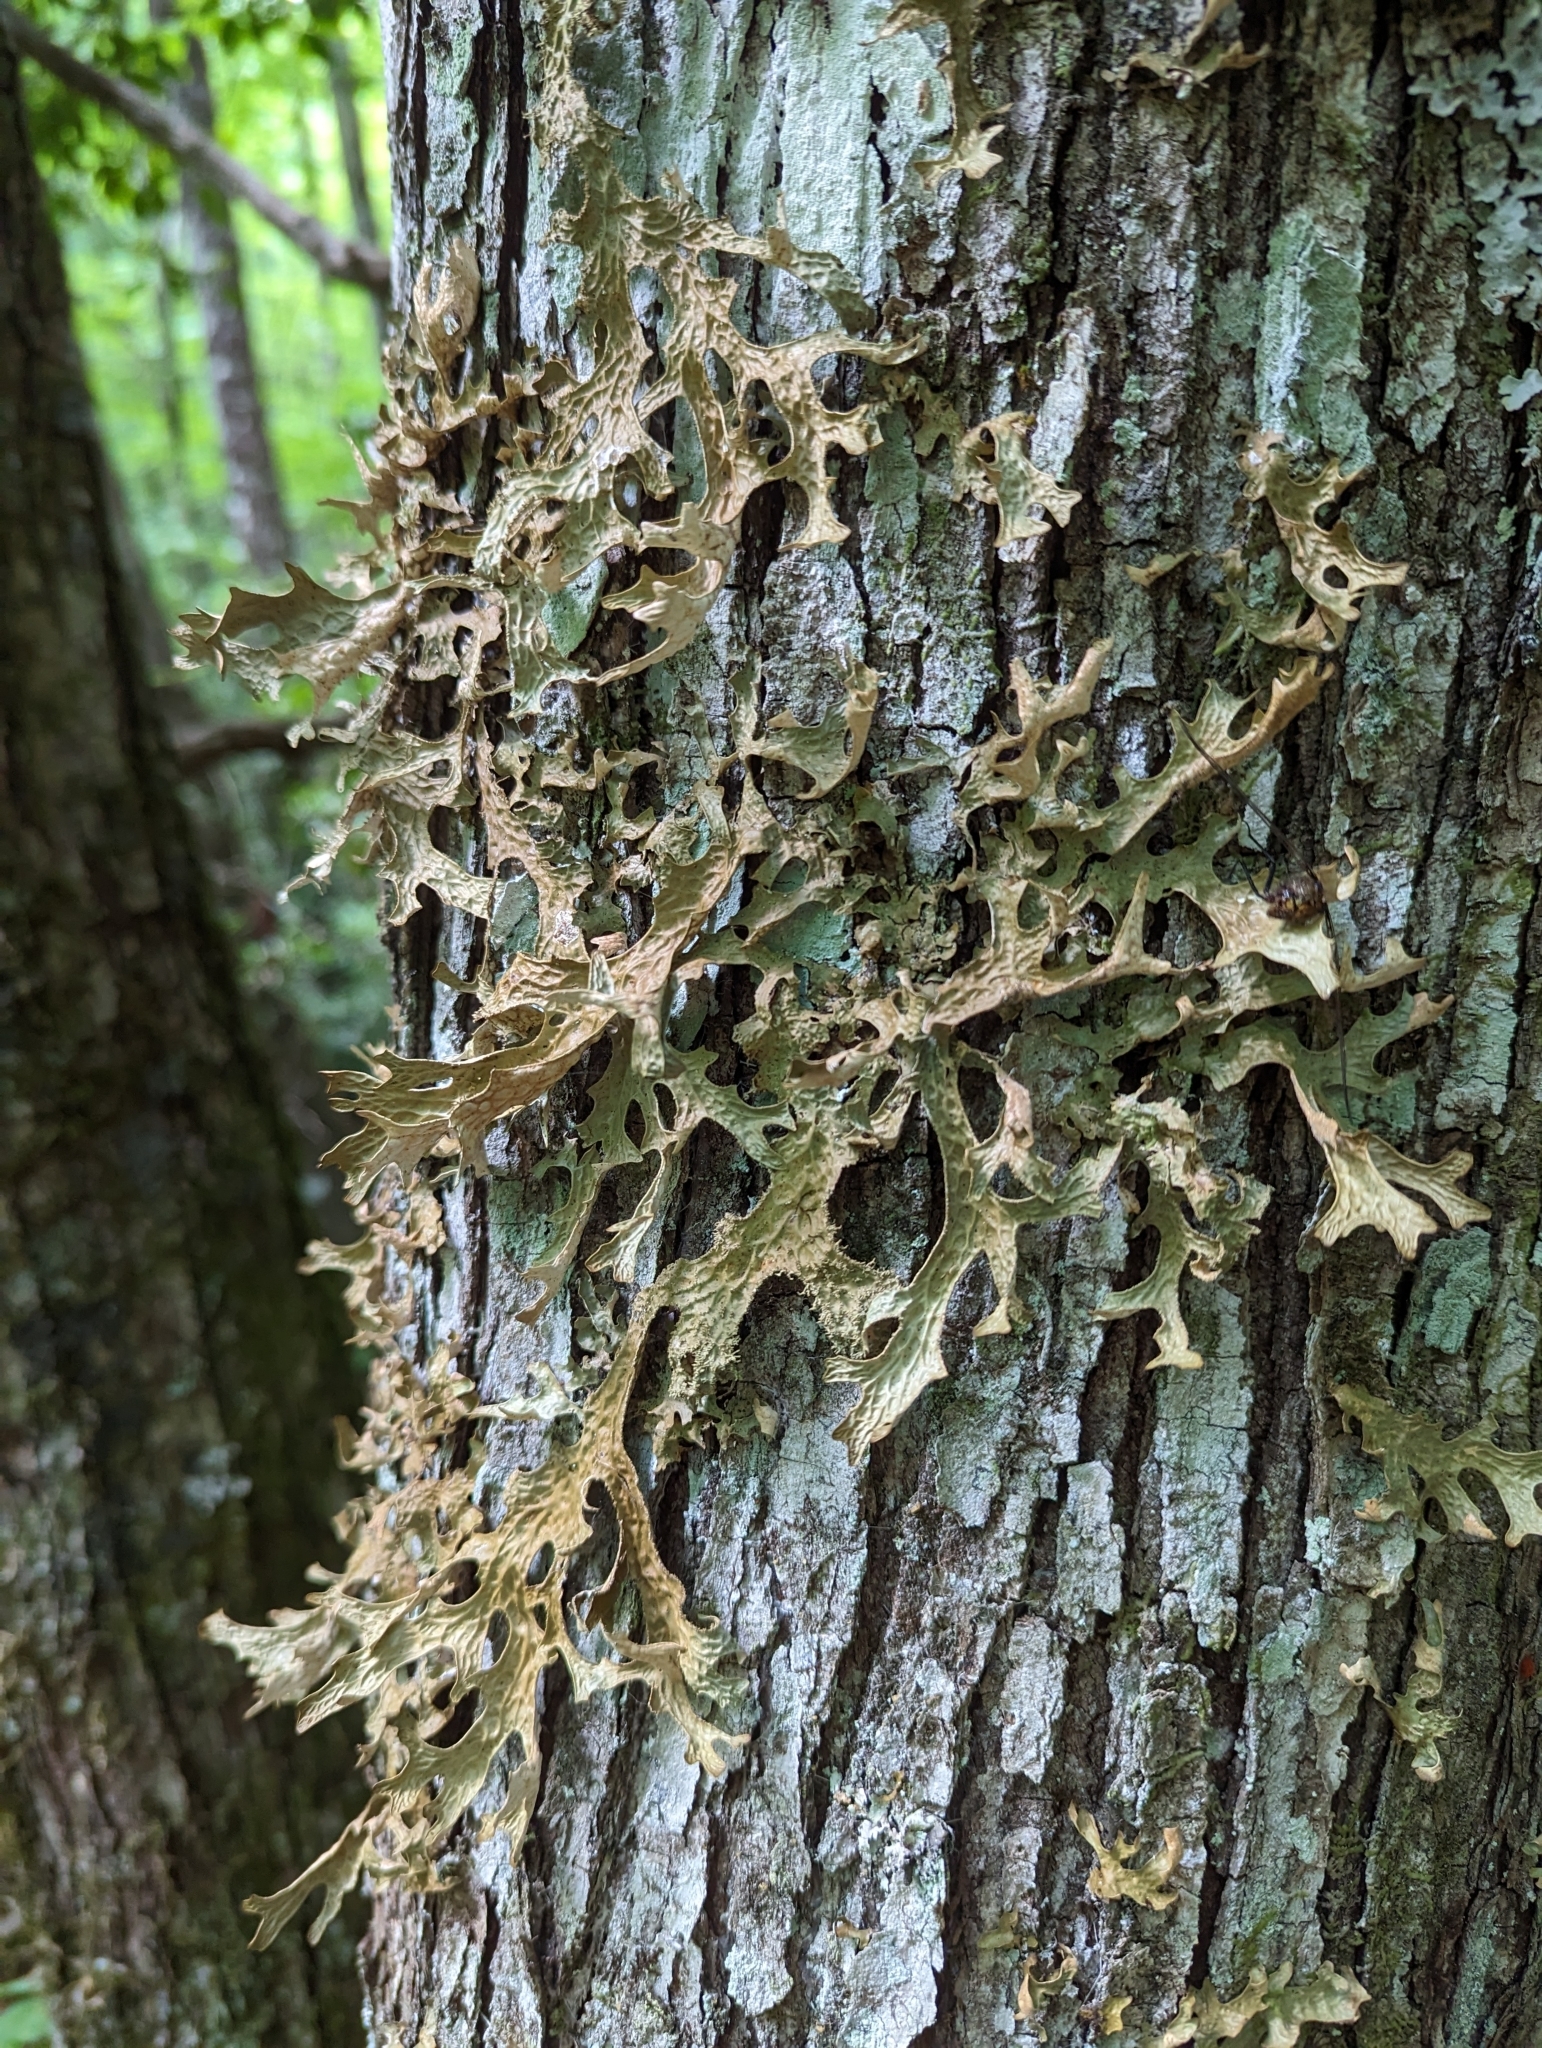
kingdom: Fungi
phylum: Ascomycota
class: Lecanoromycetes
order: Peltigerales
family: Lobariaceae
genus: Lobaria
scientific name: Lobaria pulmonaria
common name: Lungwort
